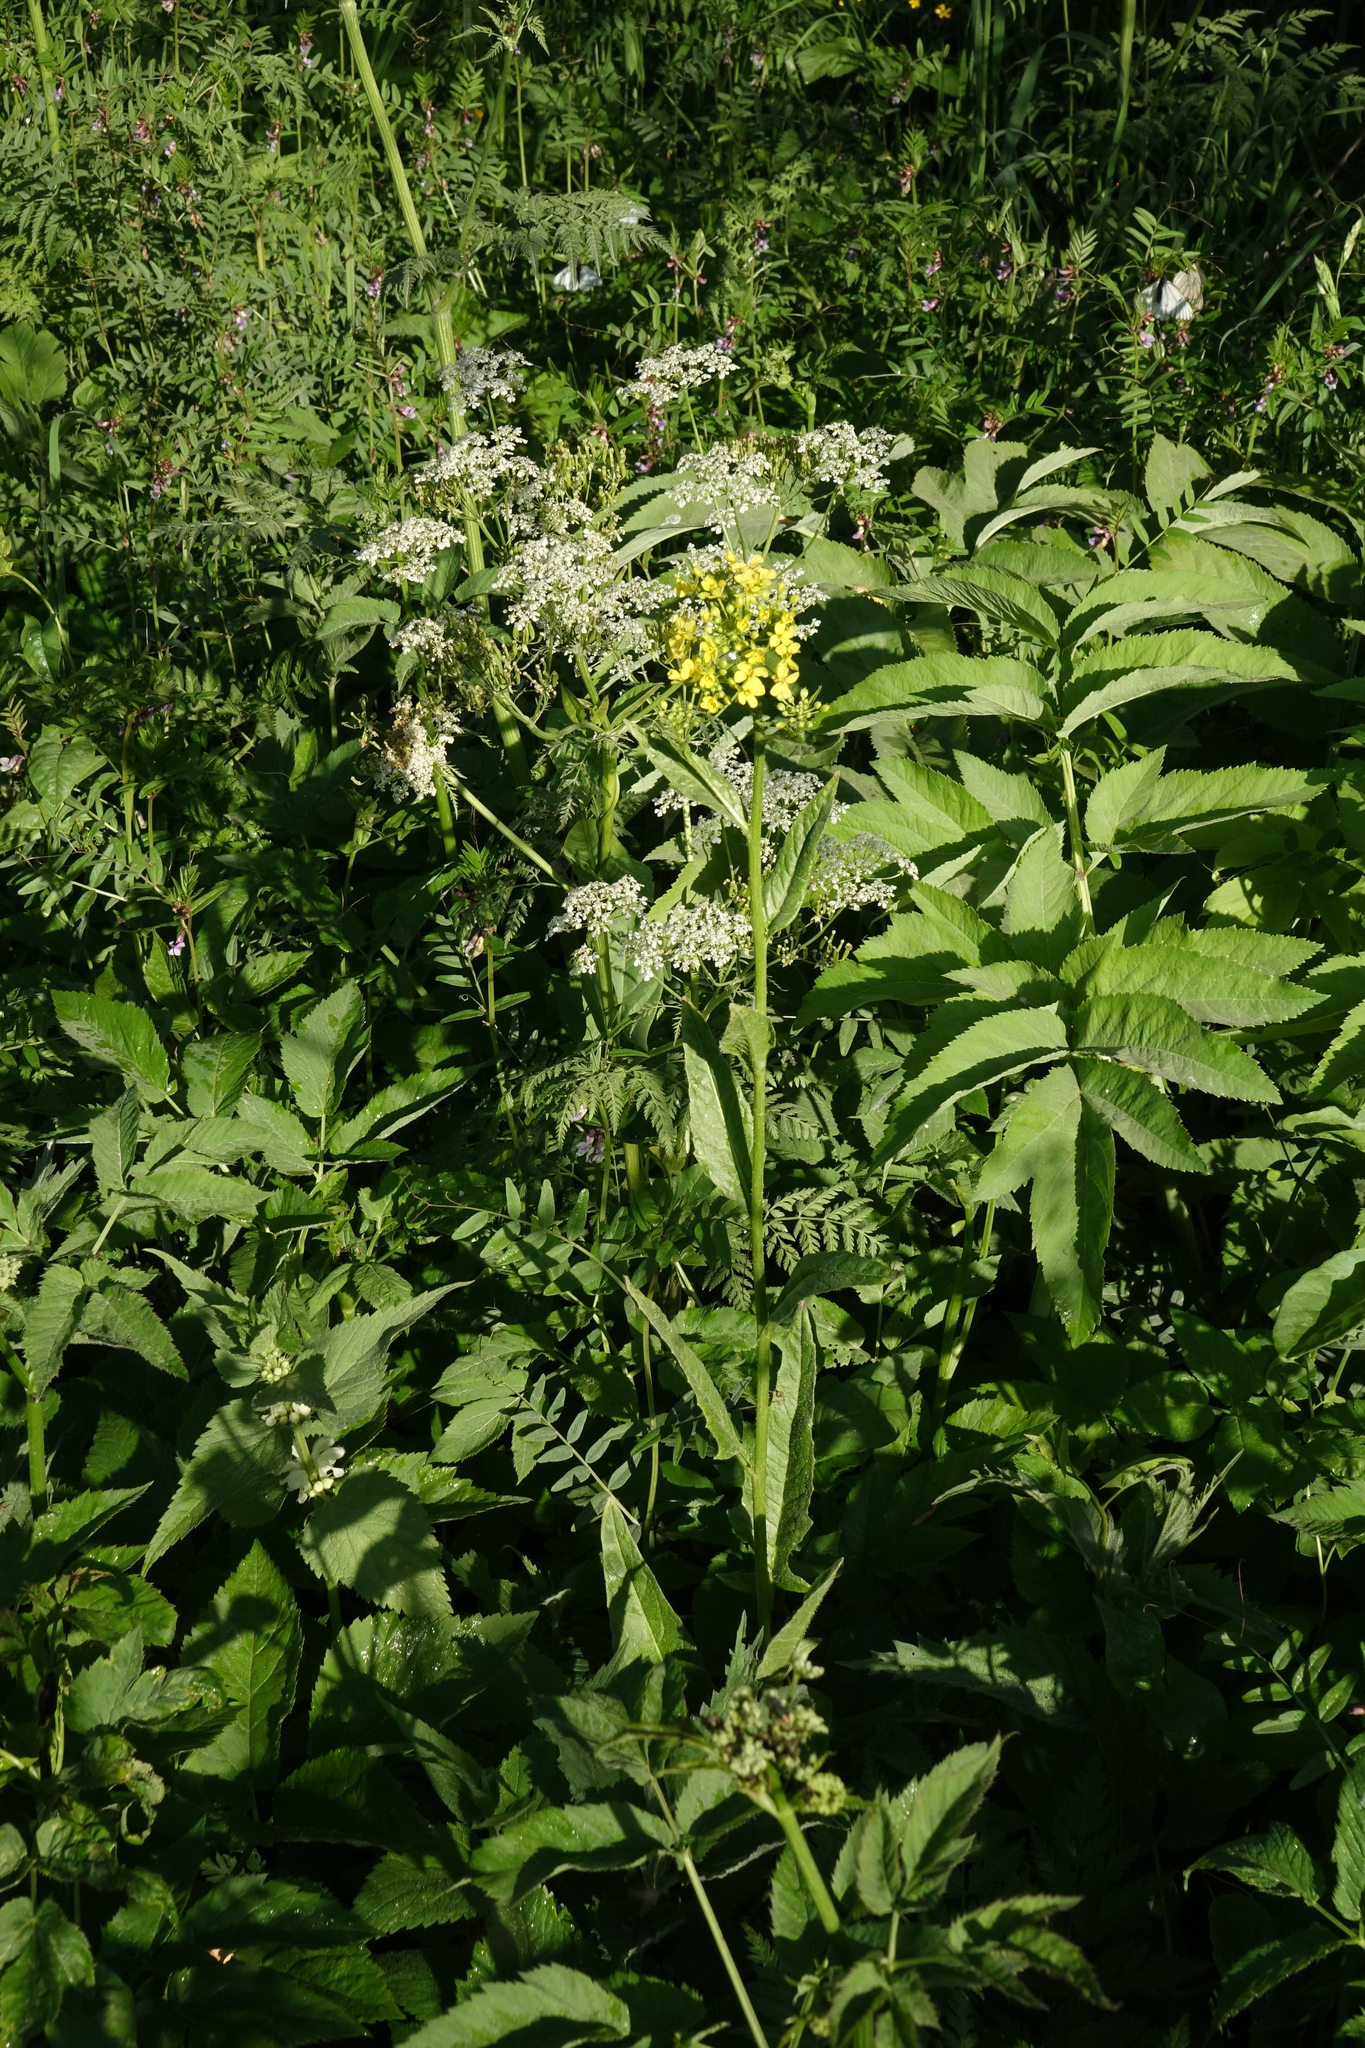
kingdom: Plantae
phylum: Tracheophyta
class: Magnoliopsida
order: Brassicales
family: Brassicaceae
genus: Bunias
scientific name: Bunias orientalis
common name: Warty-cabbage
